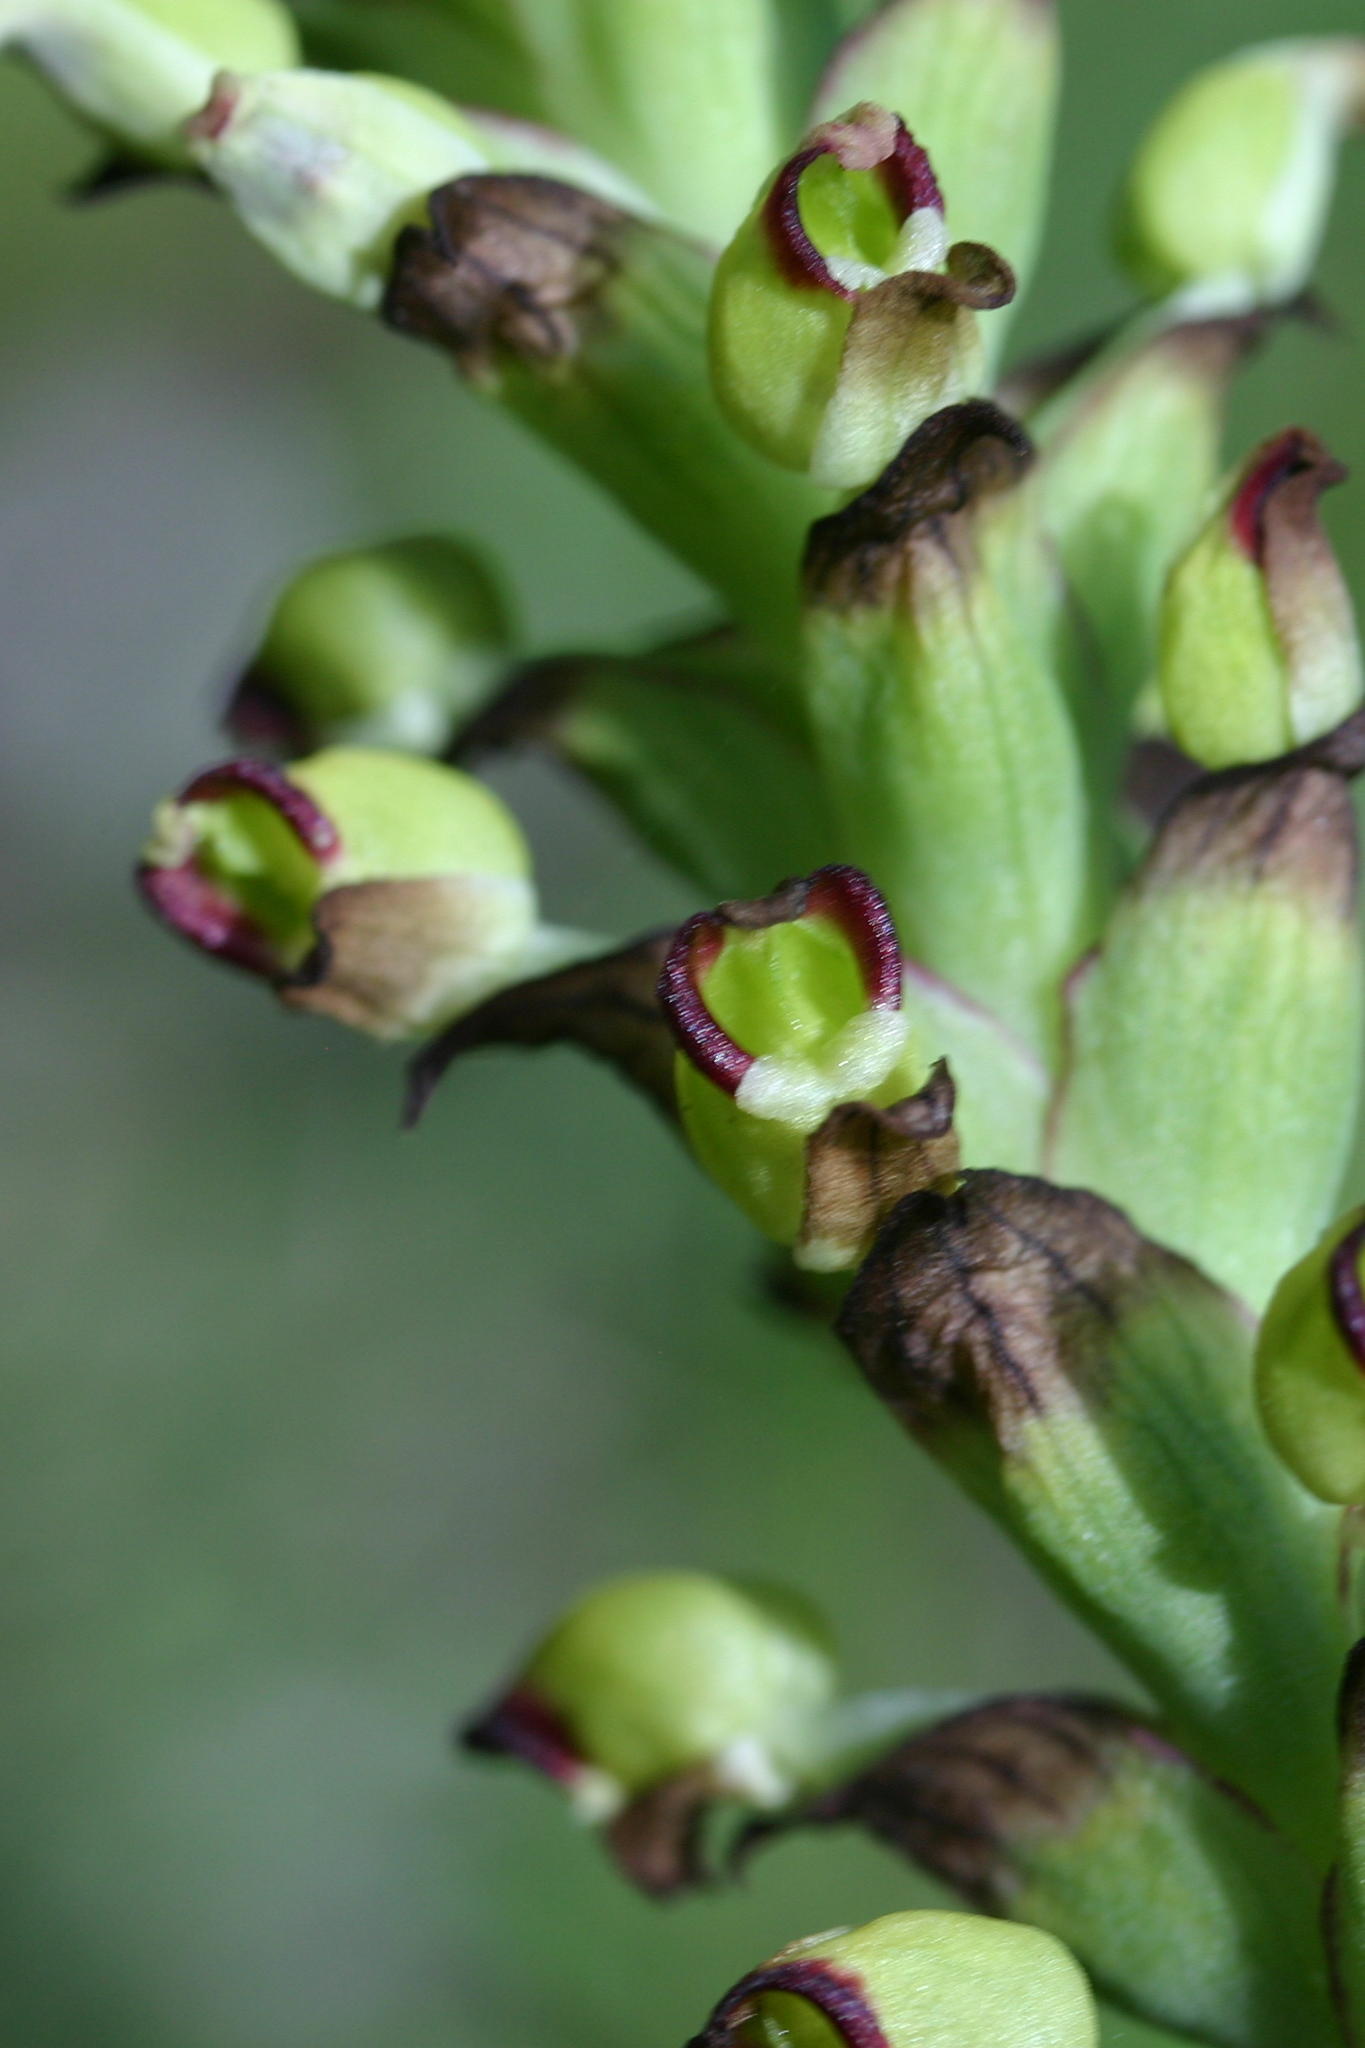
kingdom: Plantae
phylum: Tracheophyta
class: Liliopsida
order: Asparagales
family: Orchidaceae
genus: Corycium
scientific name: Corycium orobanchoides
